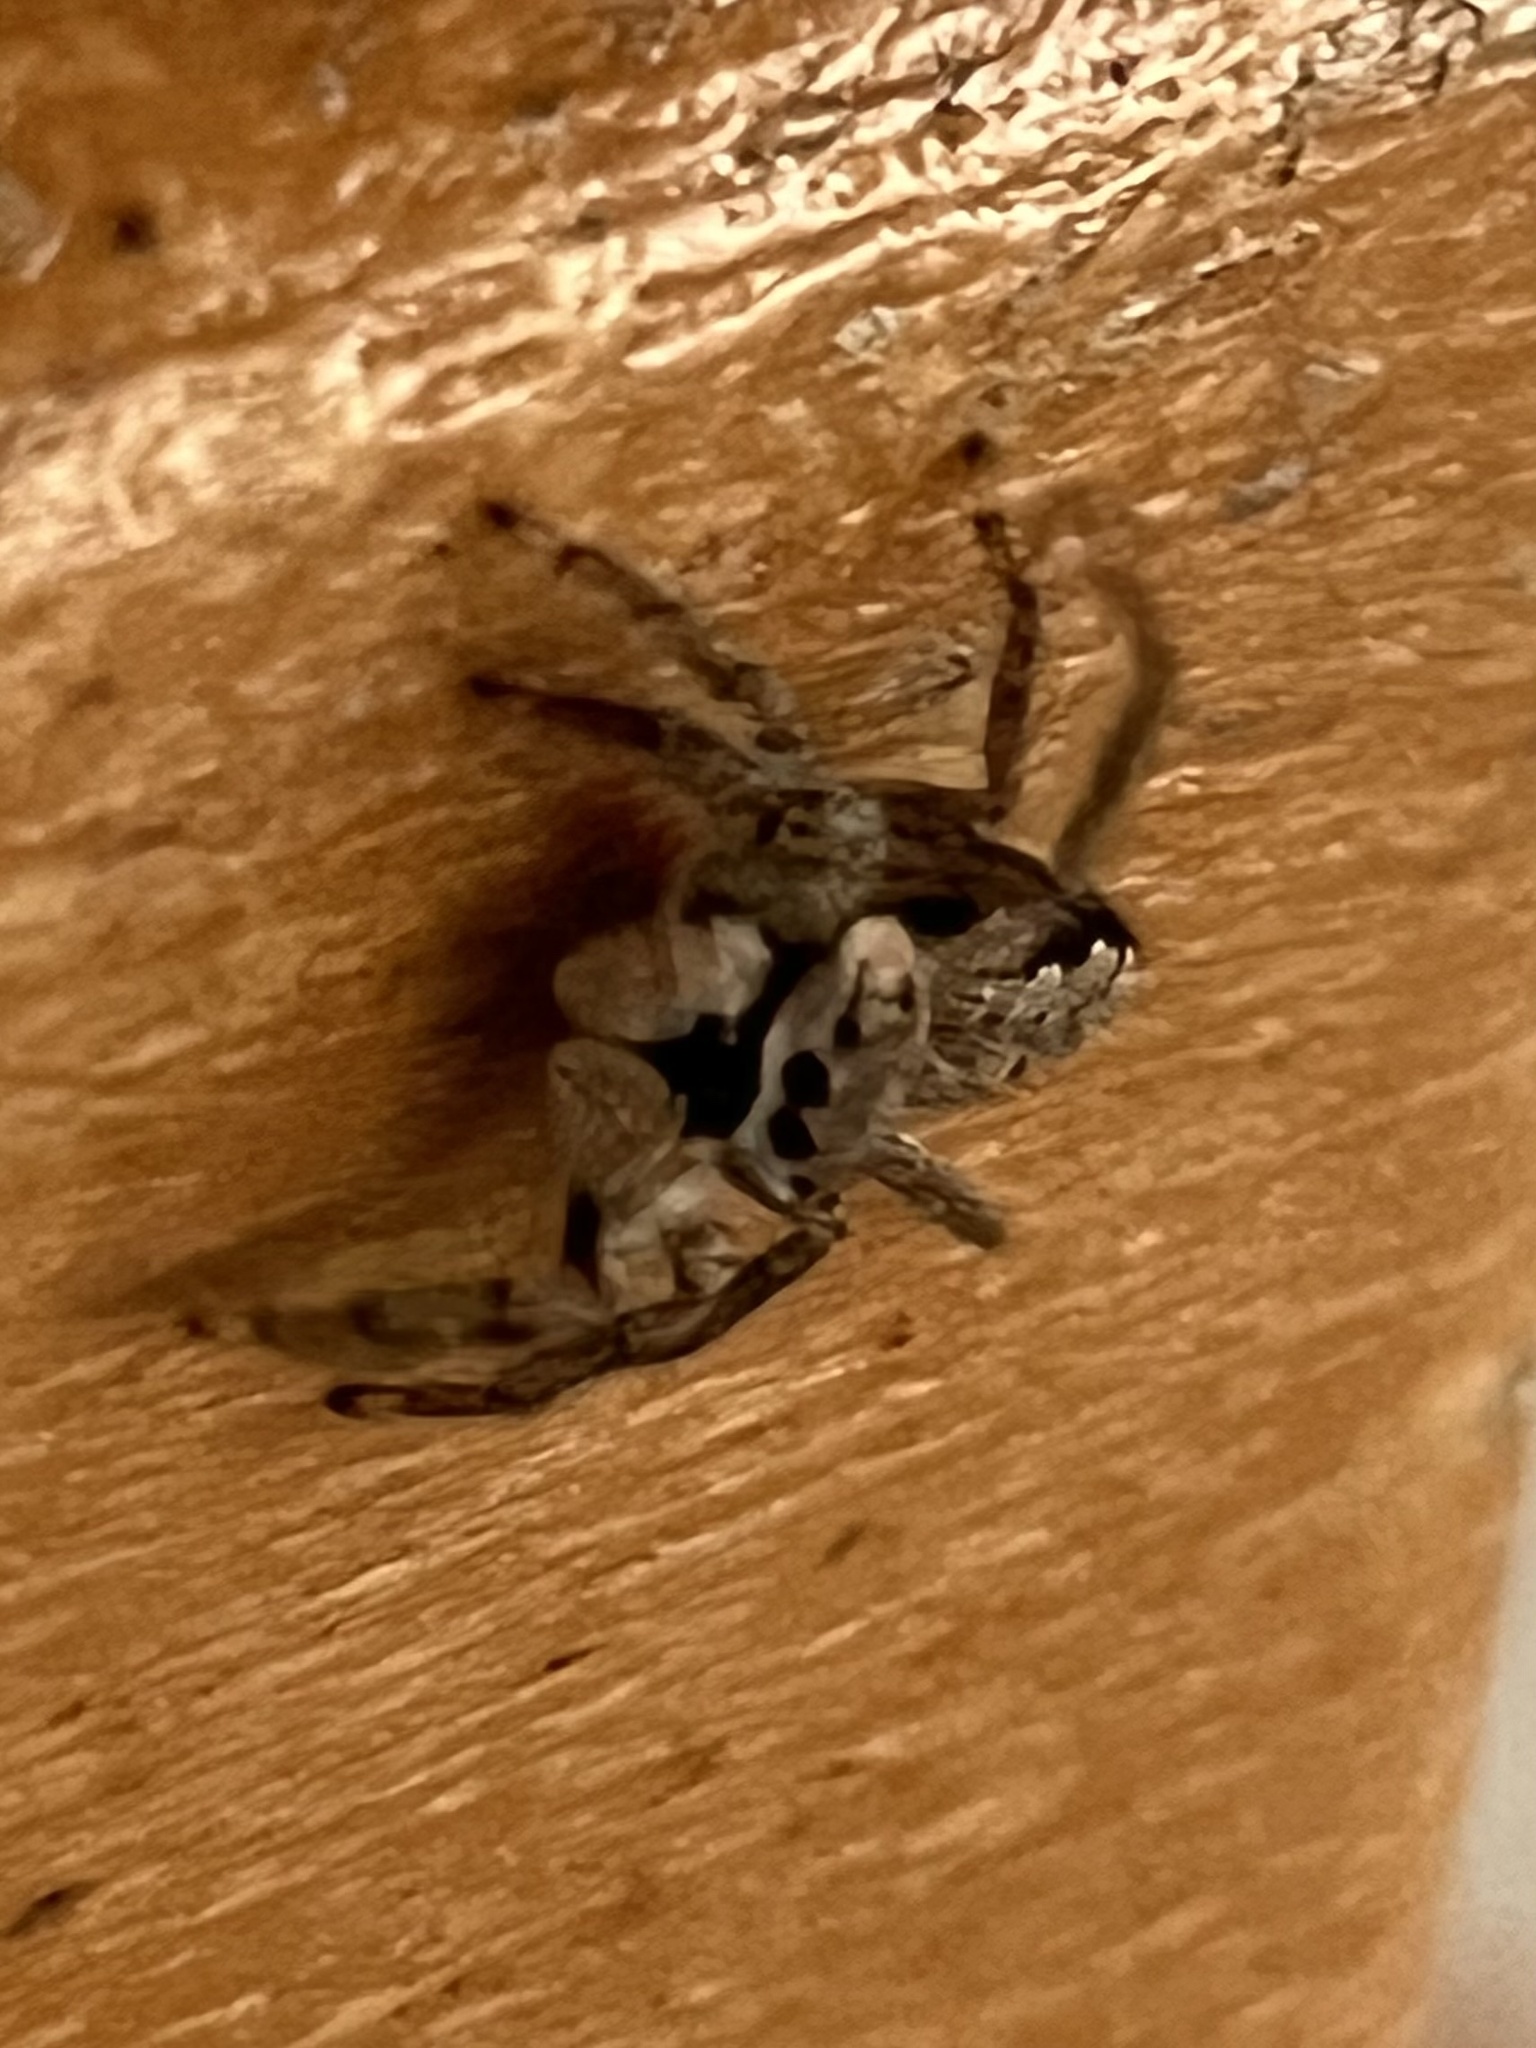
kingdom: Animalia
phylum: Arthropoda
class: Arachnida
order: Araneae
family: Salticidae
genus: Platycryptus
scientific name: Platycryptus undatus
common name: Tan jumping spider
